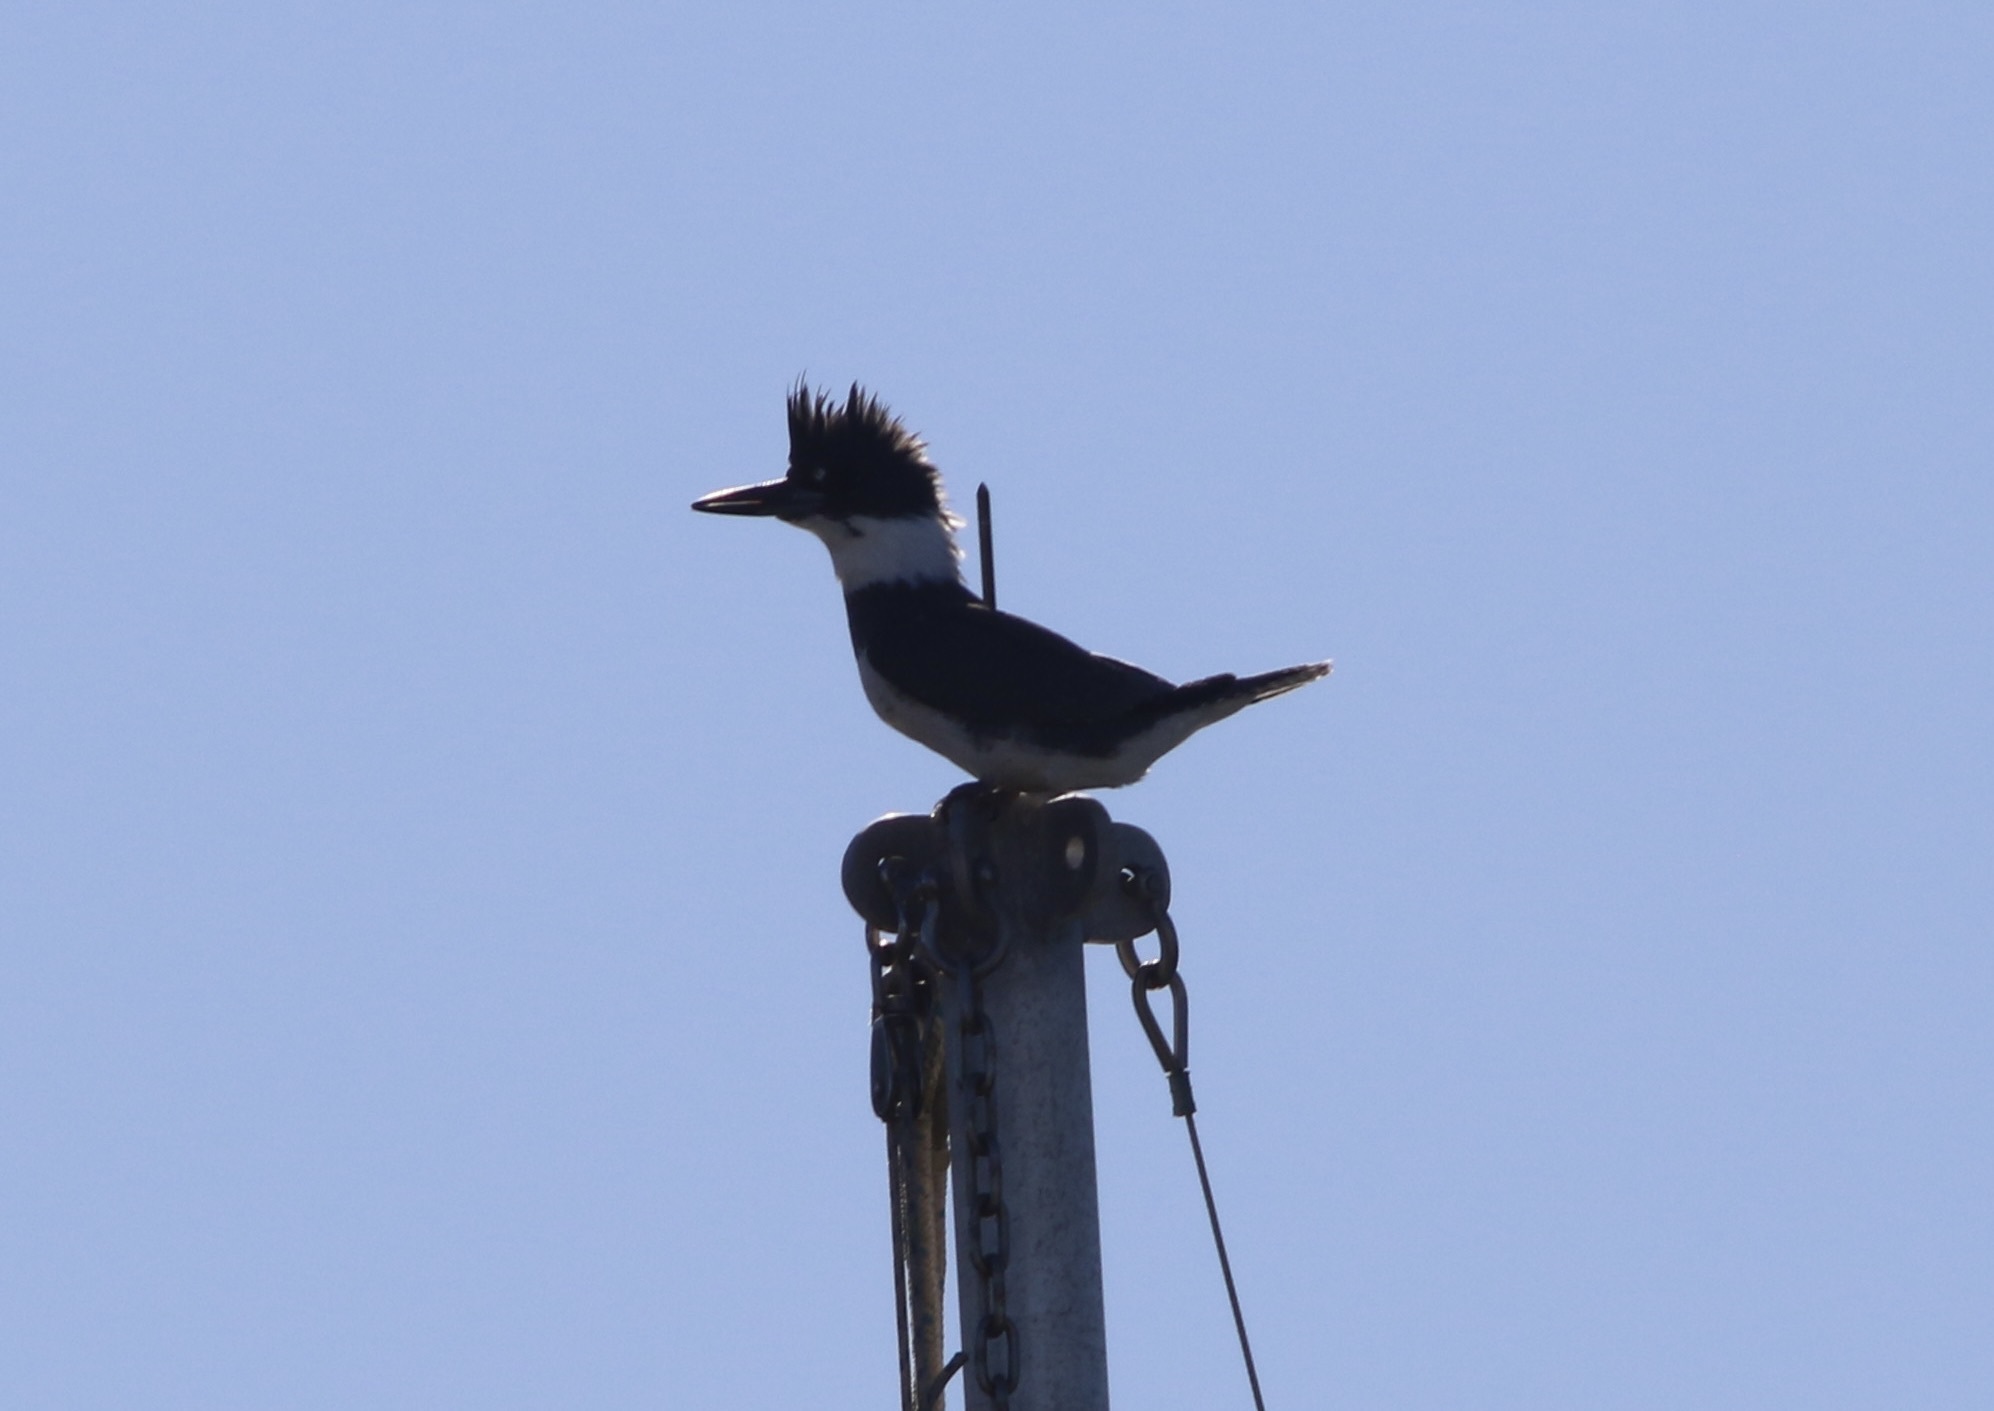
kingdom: Animalia
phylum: Chordata
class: Aves
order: Coraciiformes
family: Alcedinidae
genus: Megaceryle
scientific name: Megaceryle alcyon
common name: Belted kingfisher
